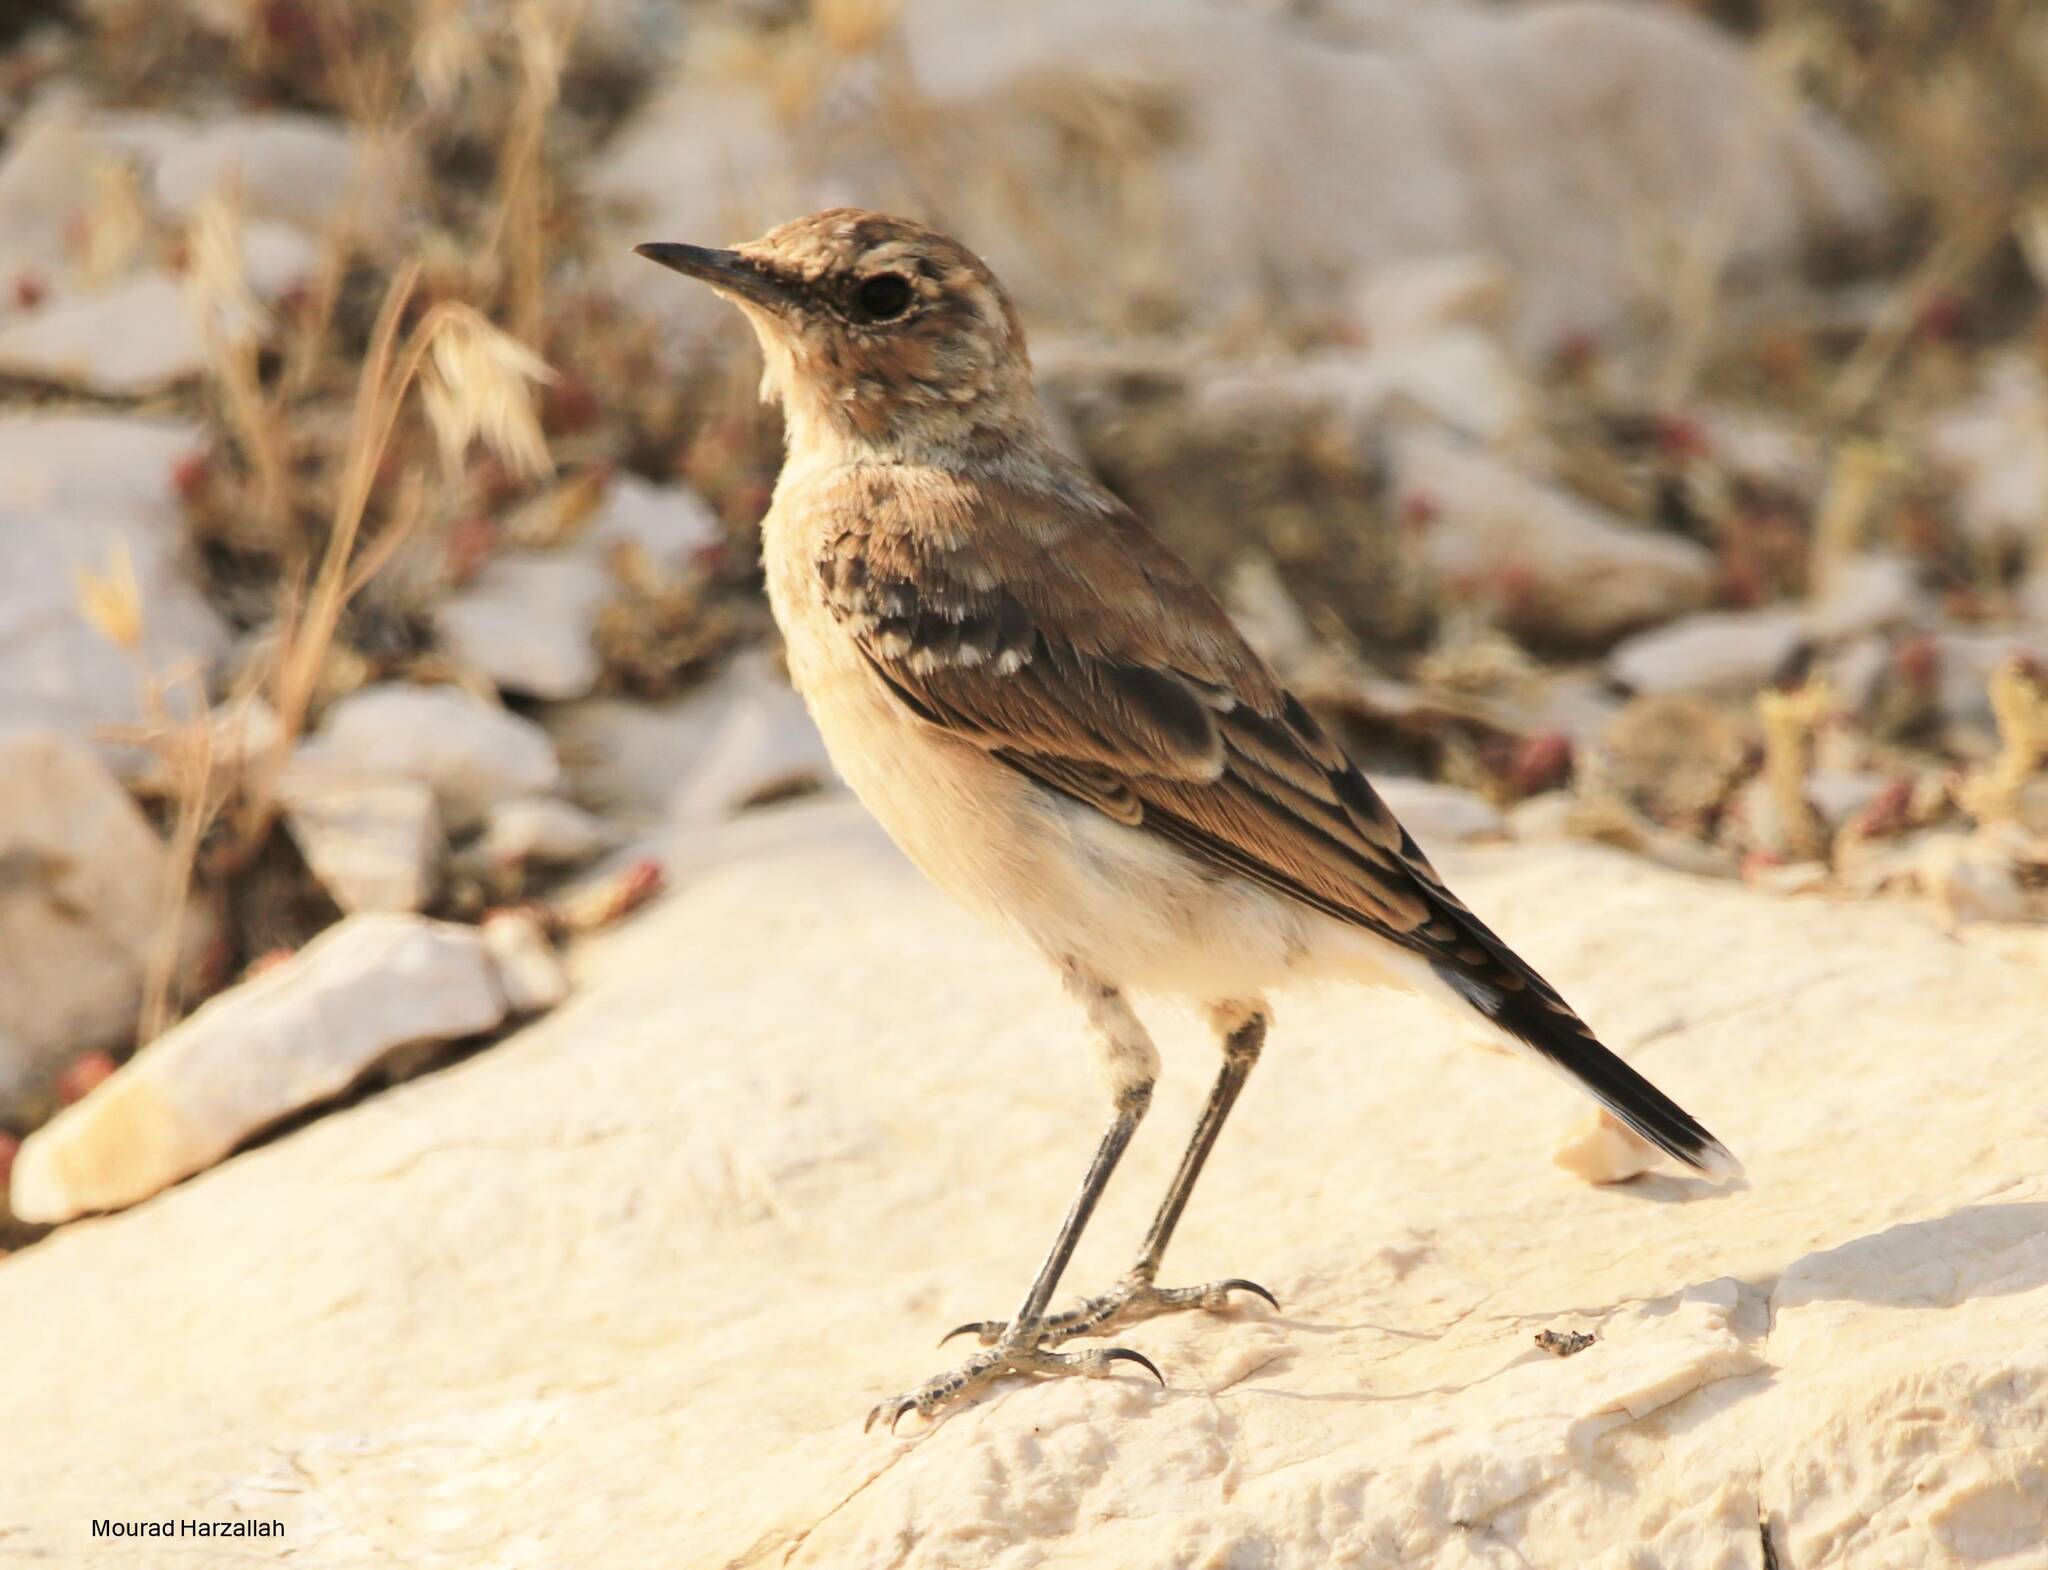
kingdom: Animalia
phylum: Chordata
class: Aves
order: Passeriformes
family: Muscicapidae
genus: Oenanthe
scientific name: Oenanthe oenanthe
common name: Northern wheatear
